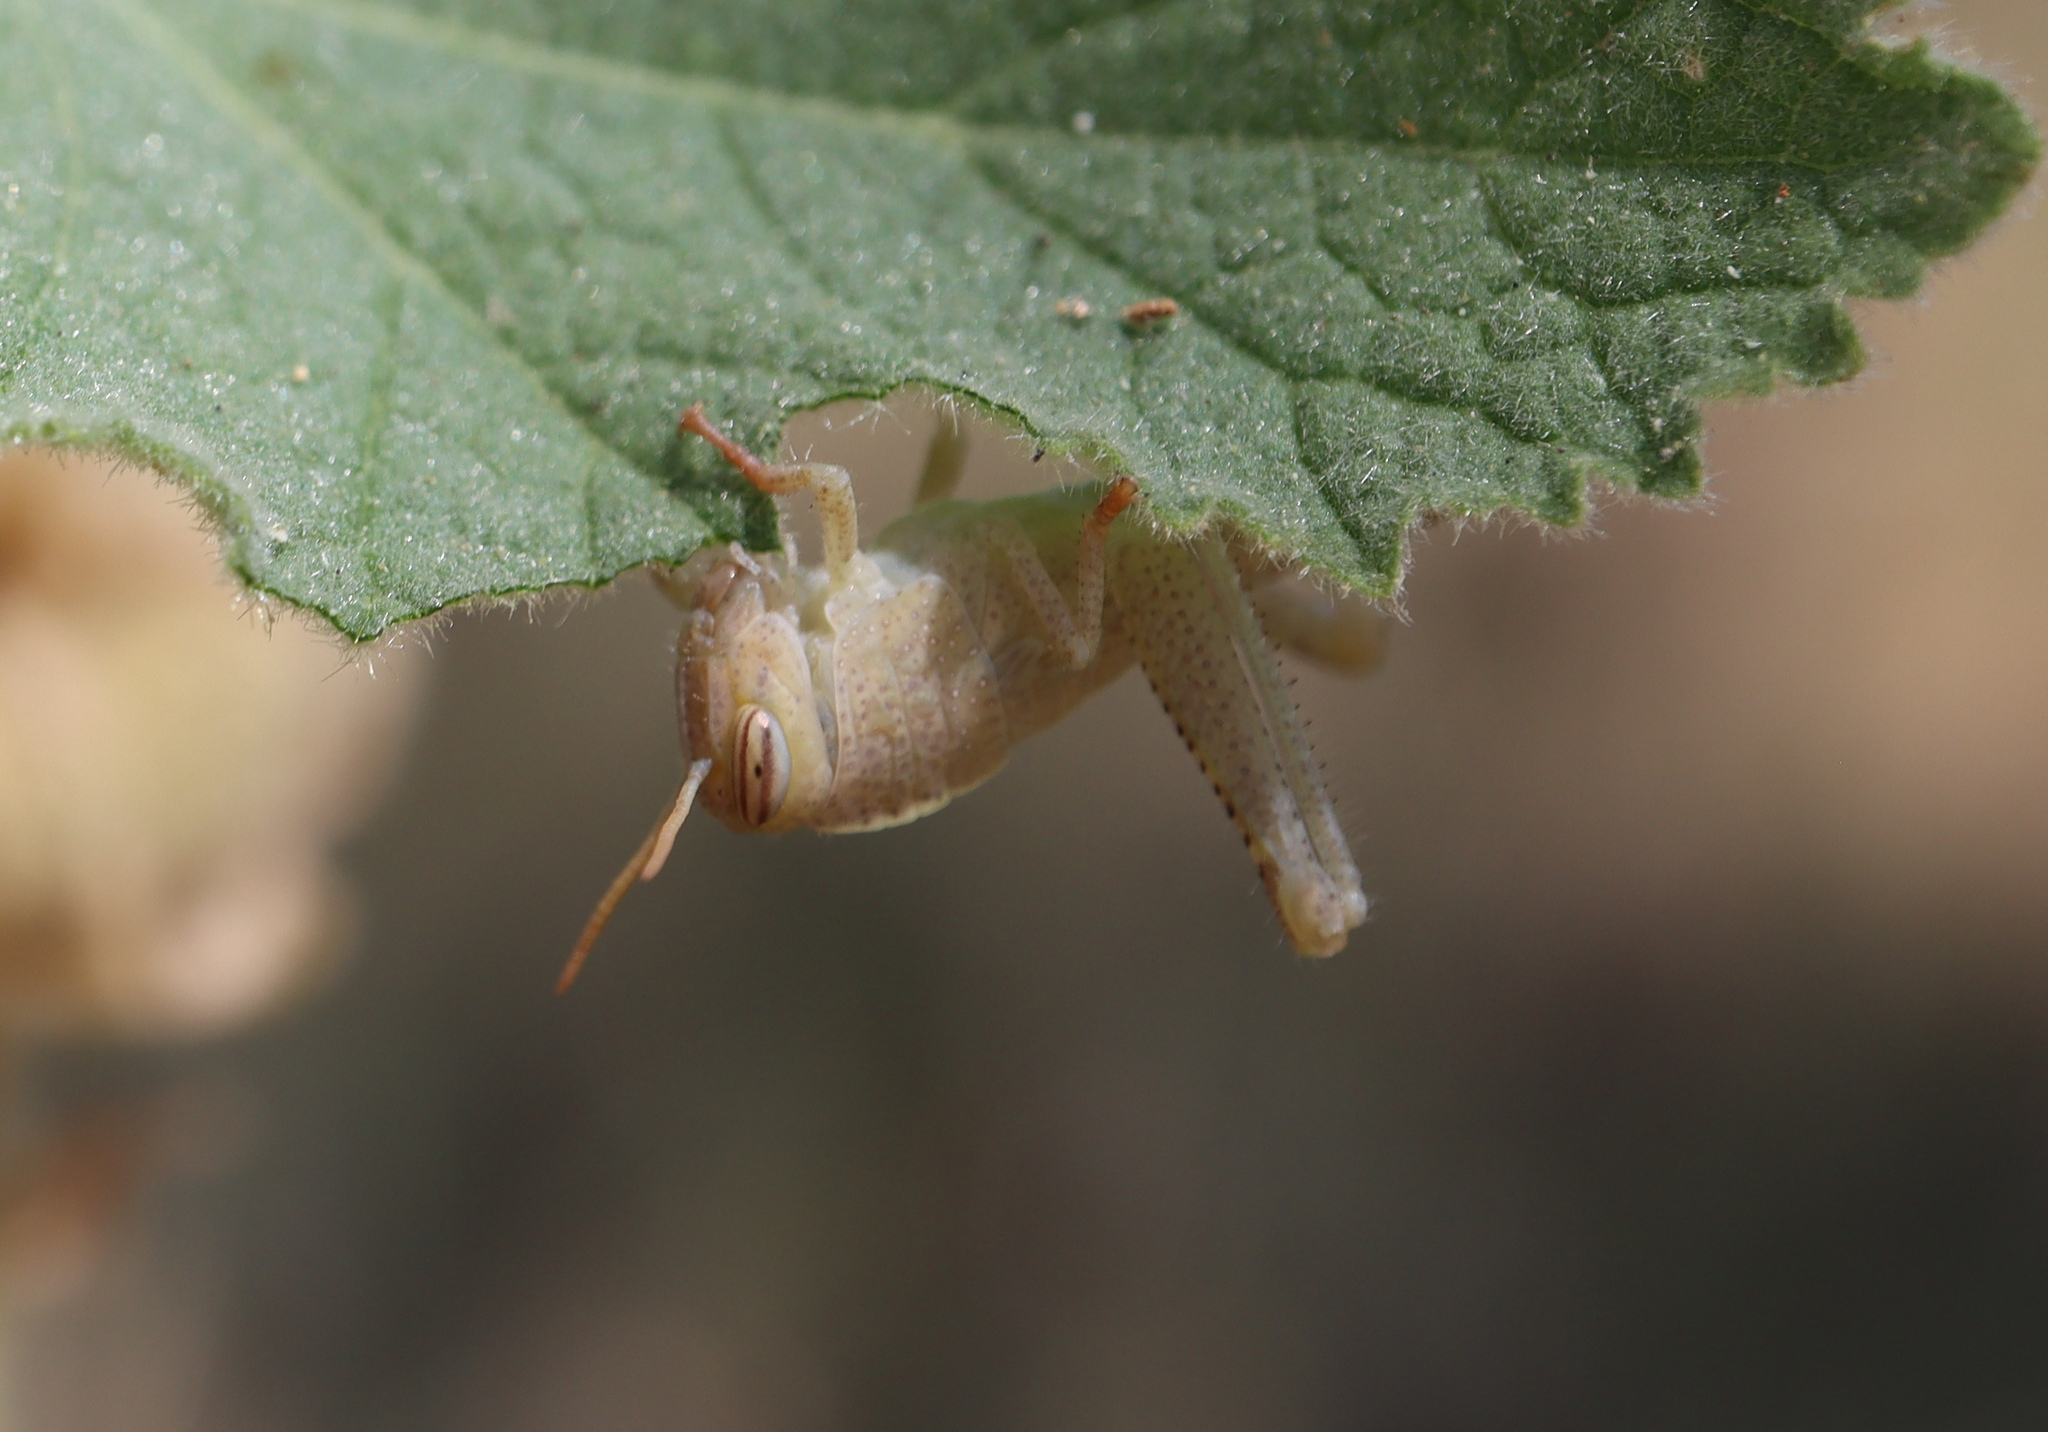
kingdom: Animalia
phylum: Arthropoda
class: Insecta
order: Orthoptera
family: Acrididae
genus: Anacridium
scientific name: Anacridium aegyptium
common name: Egyptian grasshopper
